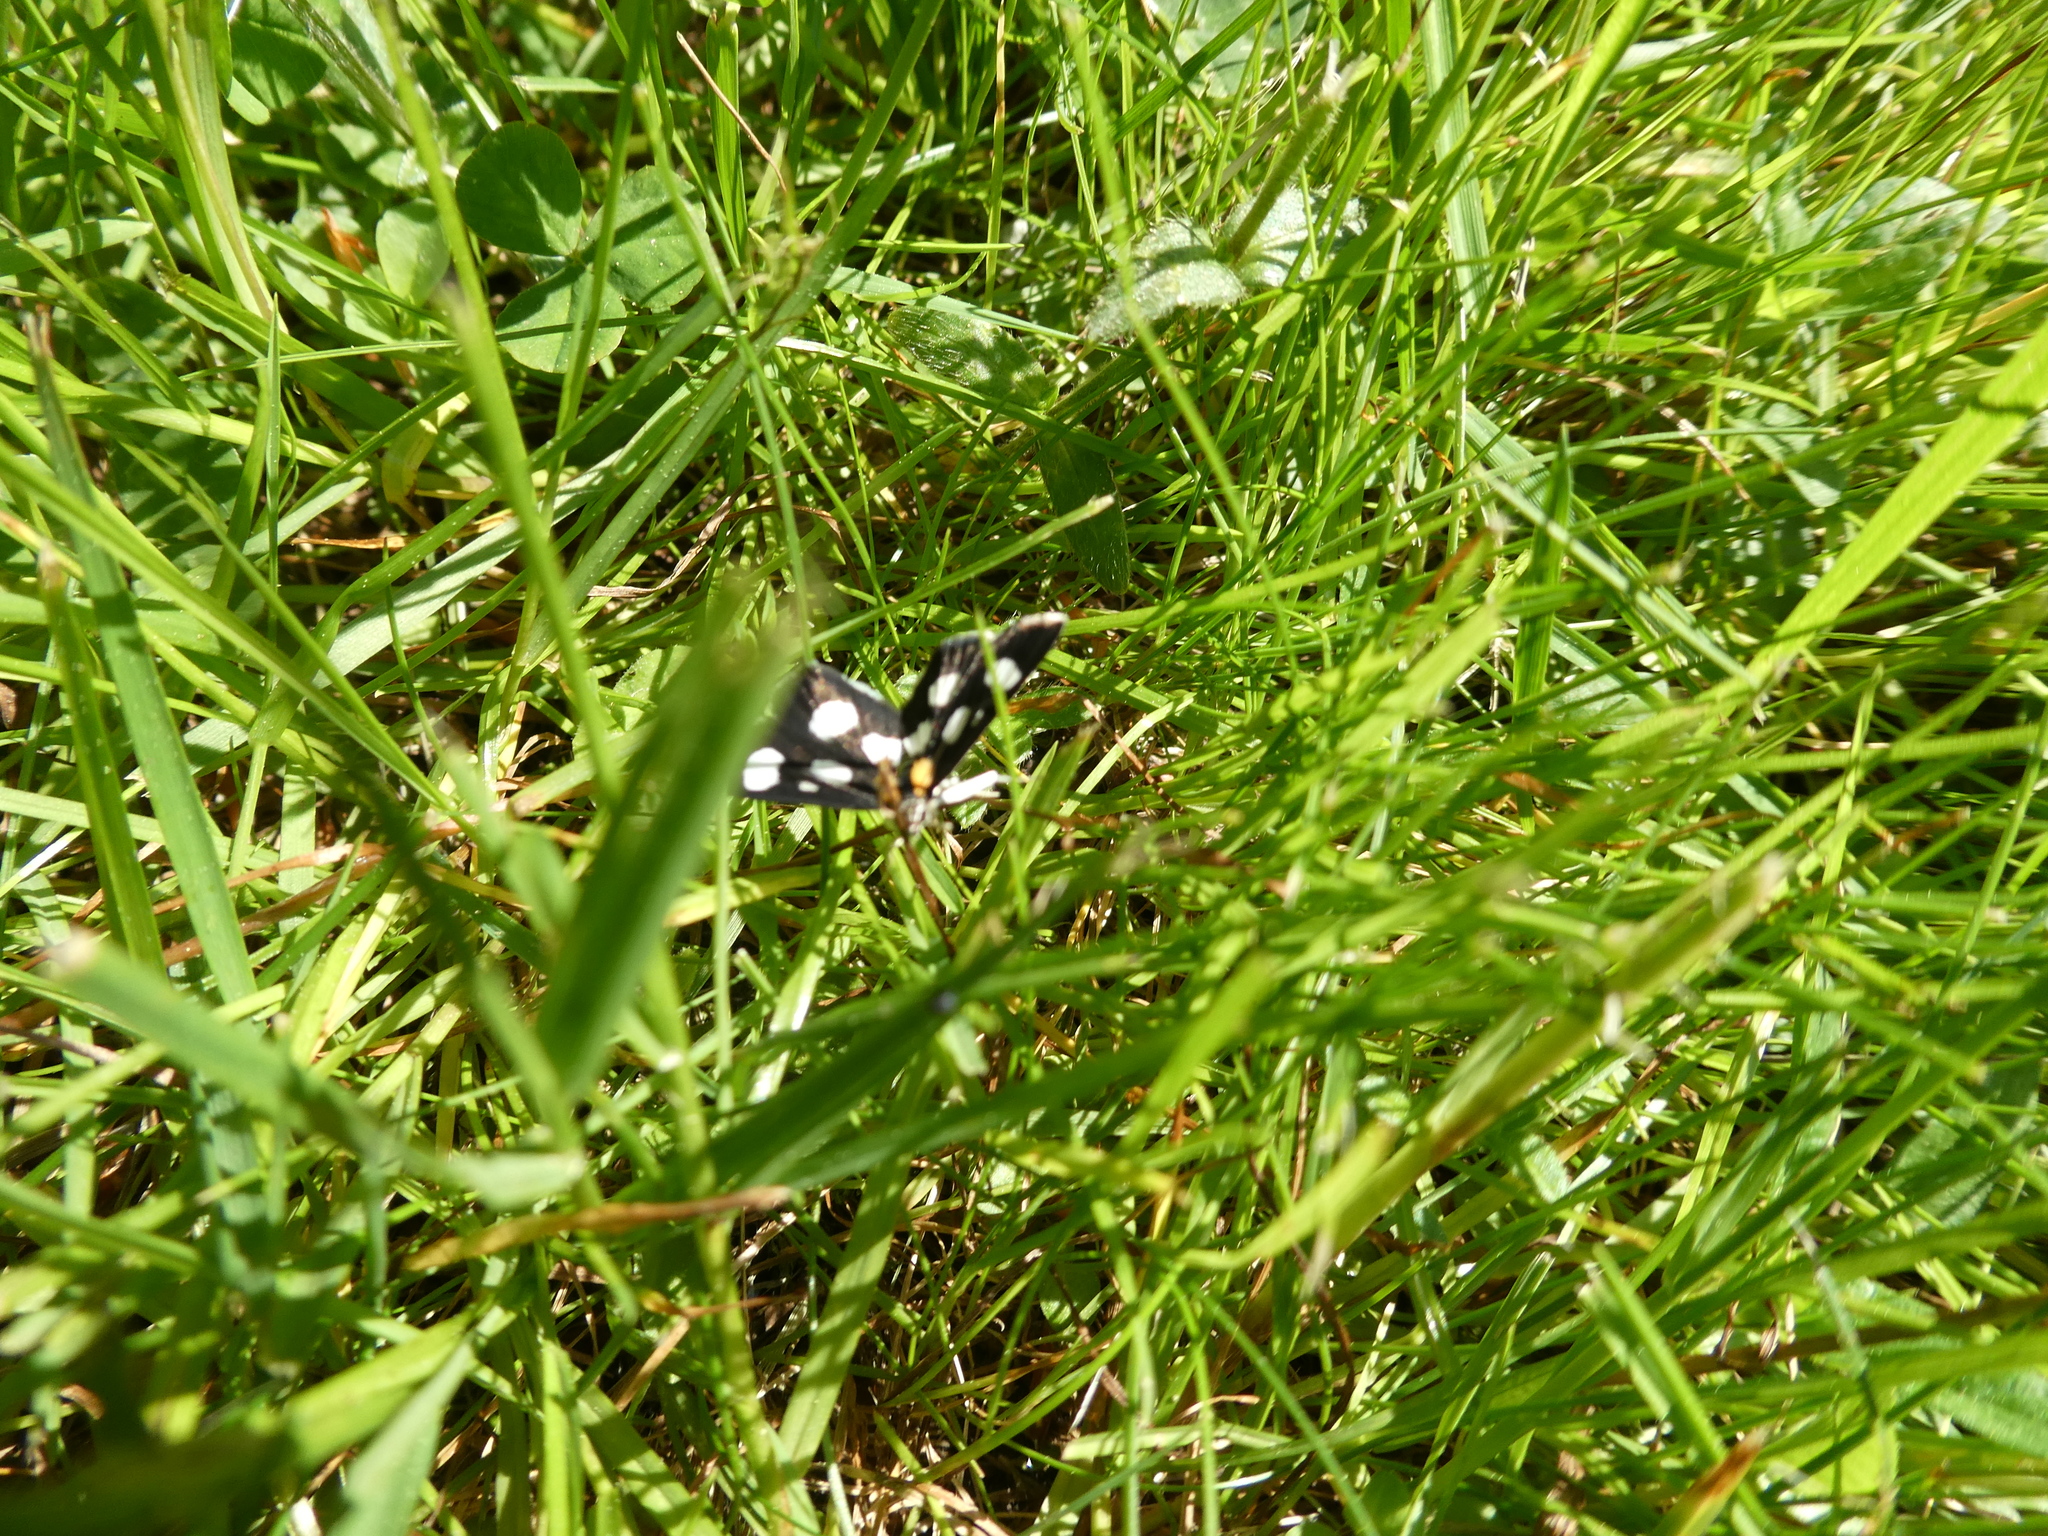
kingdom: Animalia
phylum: Arthropoda
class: Insecta
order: Lepidoptera
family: Crambidae
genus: Anania
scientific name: Anania funebris
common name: White-spotted sable moth
